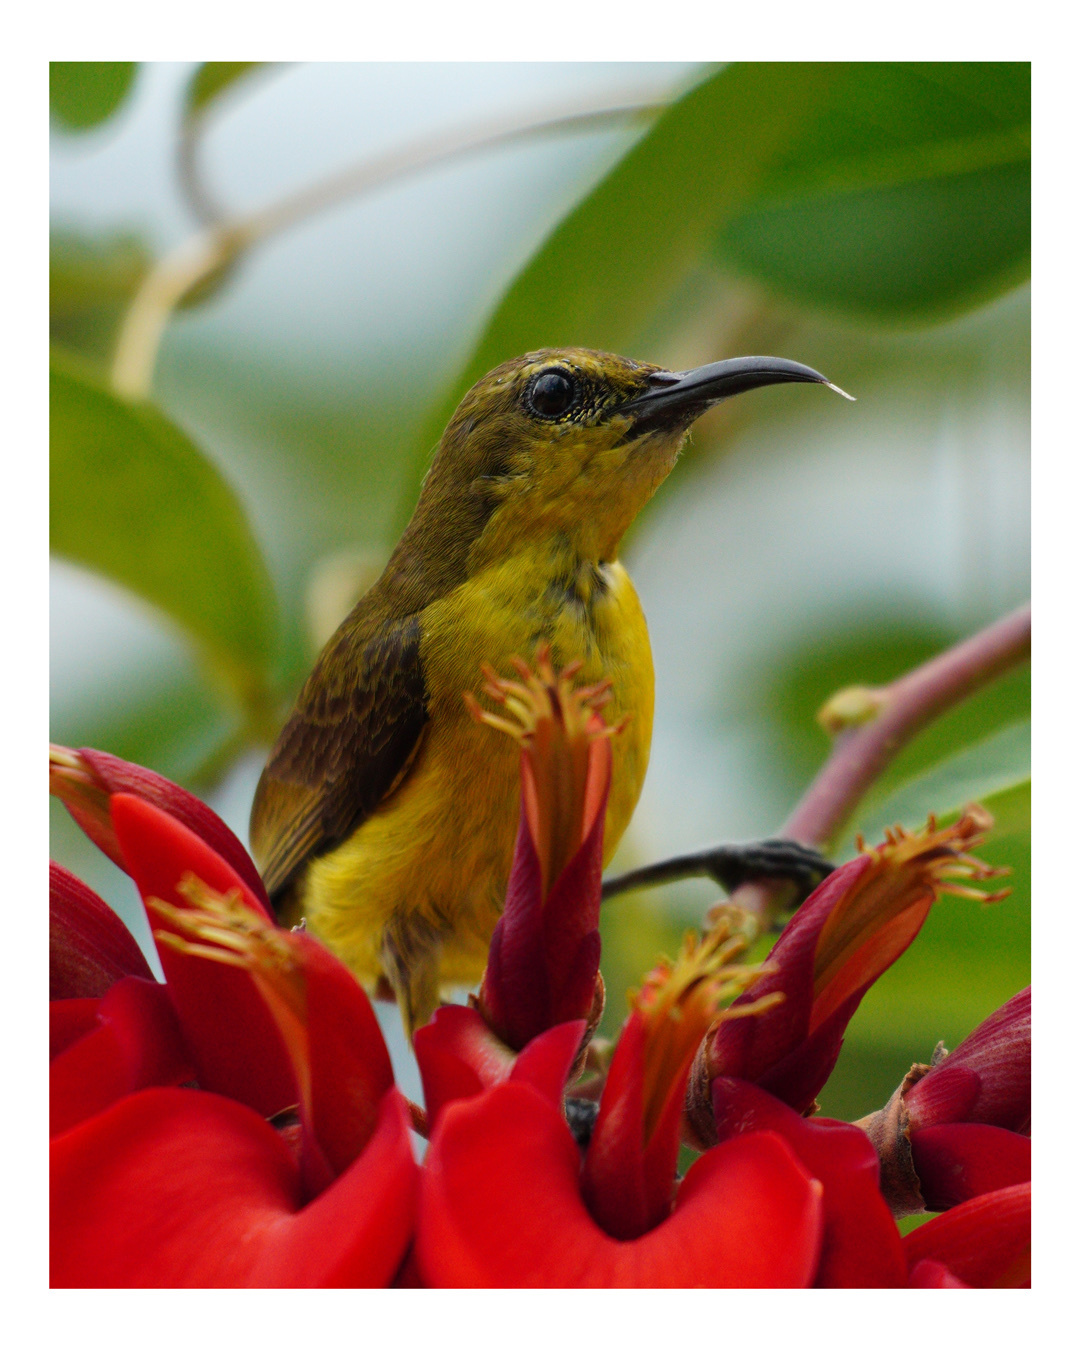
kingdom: Animalia
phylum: Chordata
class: Aves
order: Passeriformes
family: Nectariniidae
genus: Cinnyris
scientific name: Cinnyris
